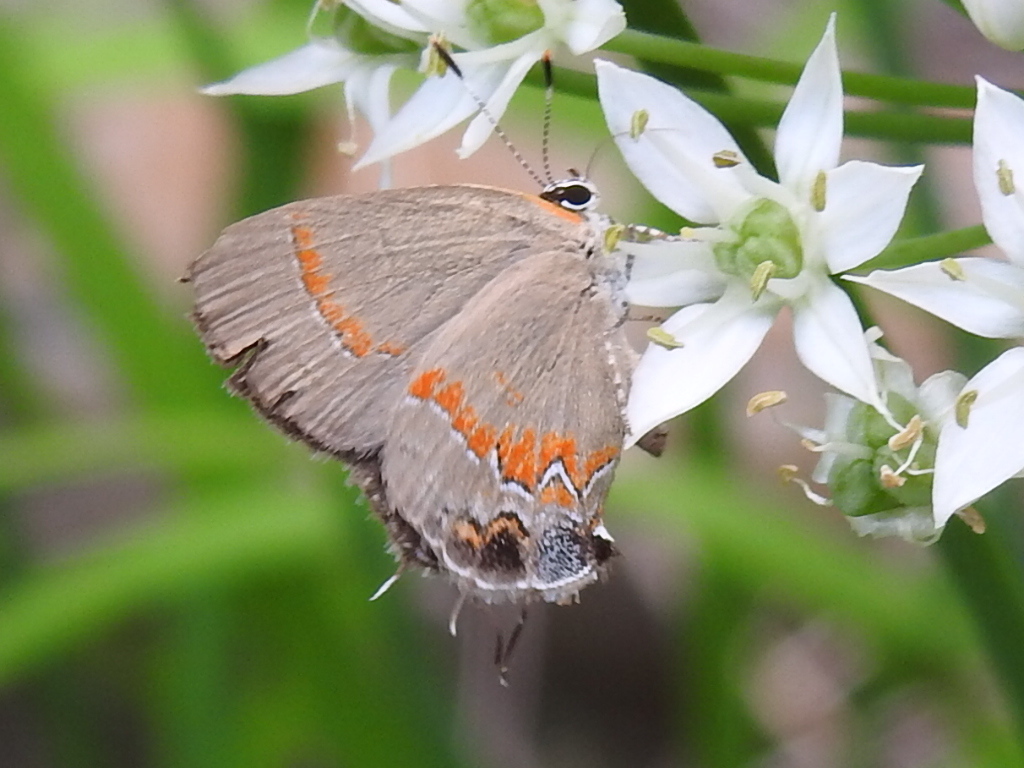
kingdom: Animalia
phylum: Arthropoda
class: Insecta
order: Lepidoptera
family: Lycaenidae
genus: Calycopis
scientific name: Calycopis cecrops
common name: Red-banded hairstreak
